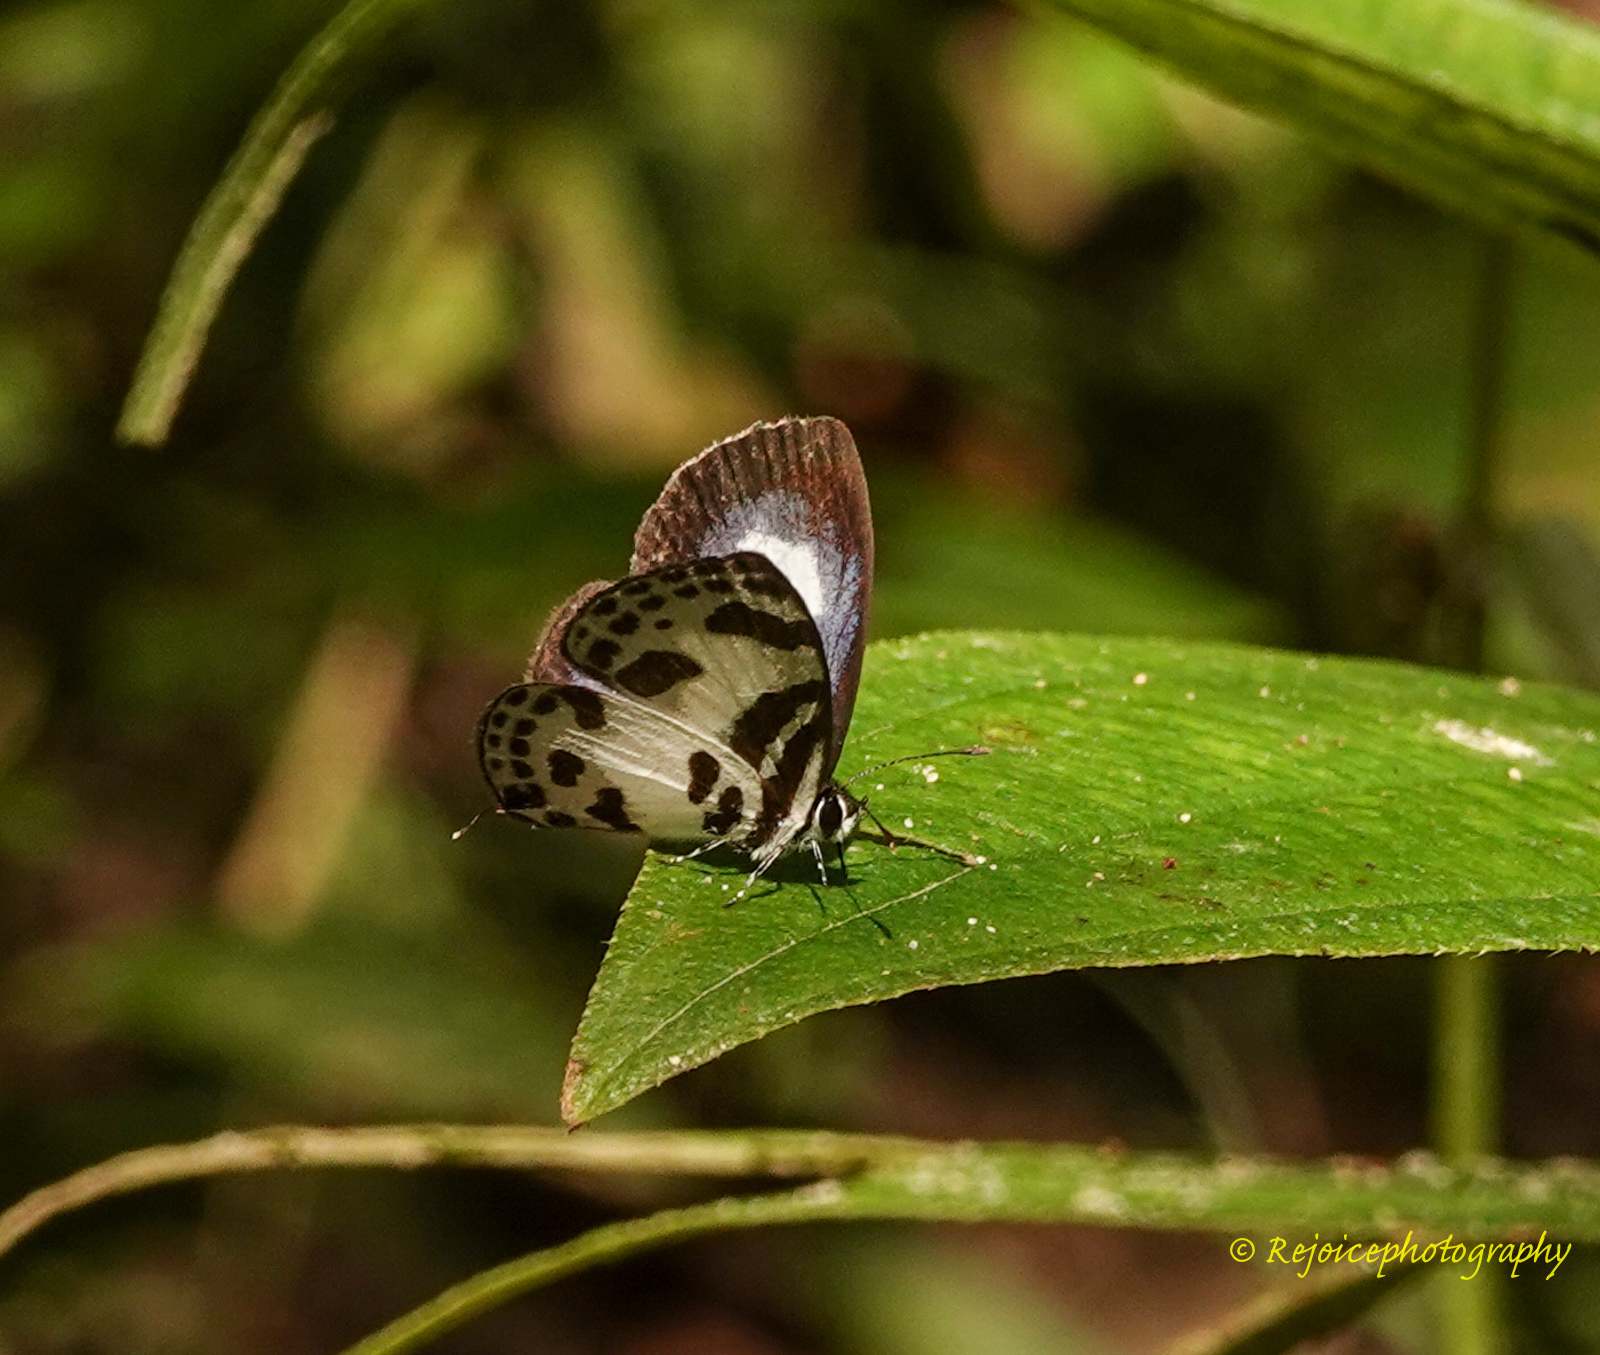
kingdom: Animalia
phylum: Arthropoda
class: Insecta
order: Lepidoptera
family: Lycaenidae
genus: Discolampa
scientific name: Discolampa ethion
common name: Banded blue pierrot
